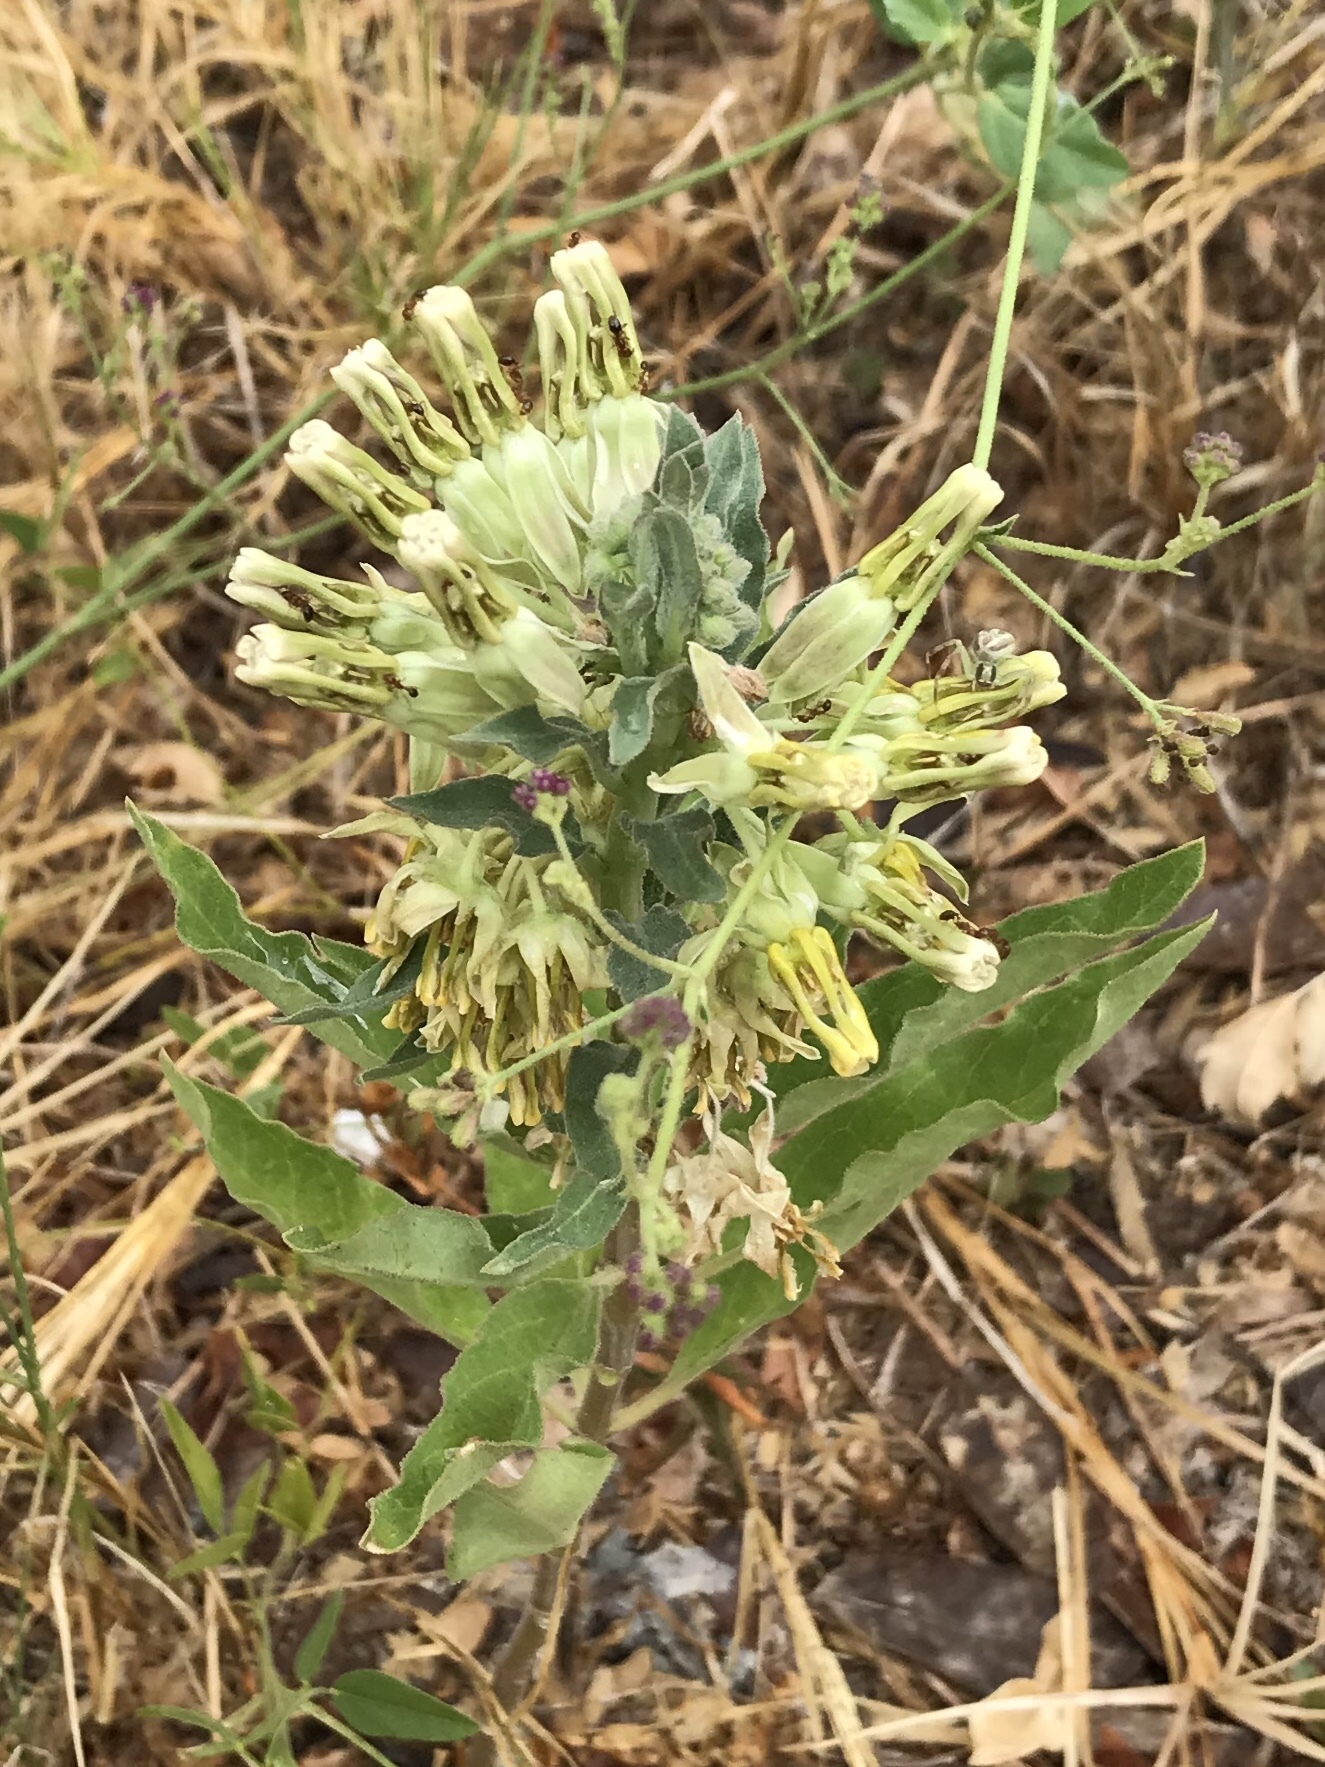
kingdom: Plantae
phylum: Tracheophyta
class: Magnoliopsida
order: Gentianales
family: Apocynaceae
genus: Asclepias
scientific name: Asclepias oenotheroides
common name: Zizotes milkweed
